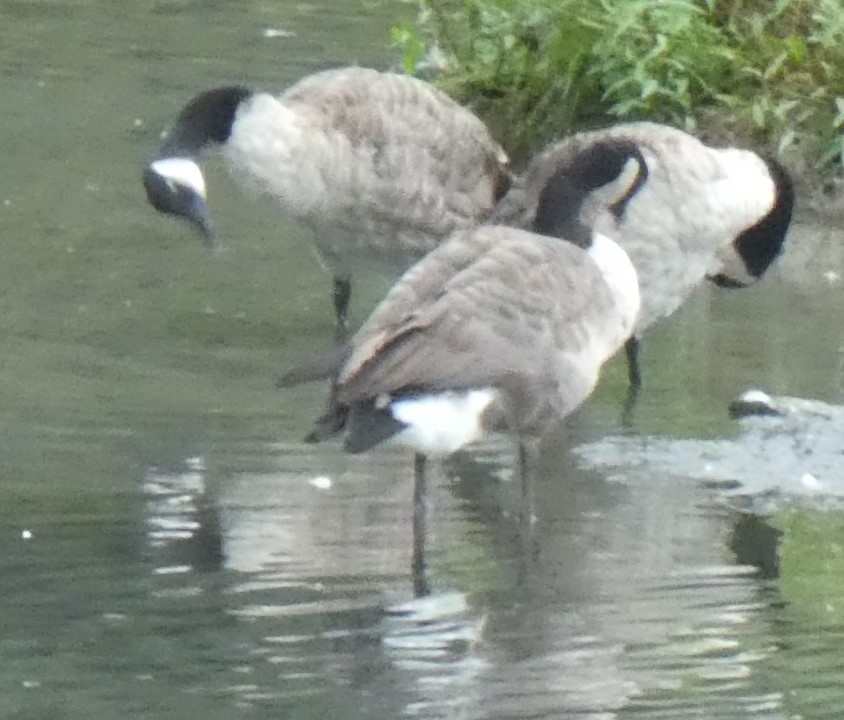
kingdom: Animalia
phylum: Chordata
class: Aves
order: Anseriformes
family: Anatidae
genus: Branta
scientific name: Branta canadensis
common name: Canada goose
